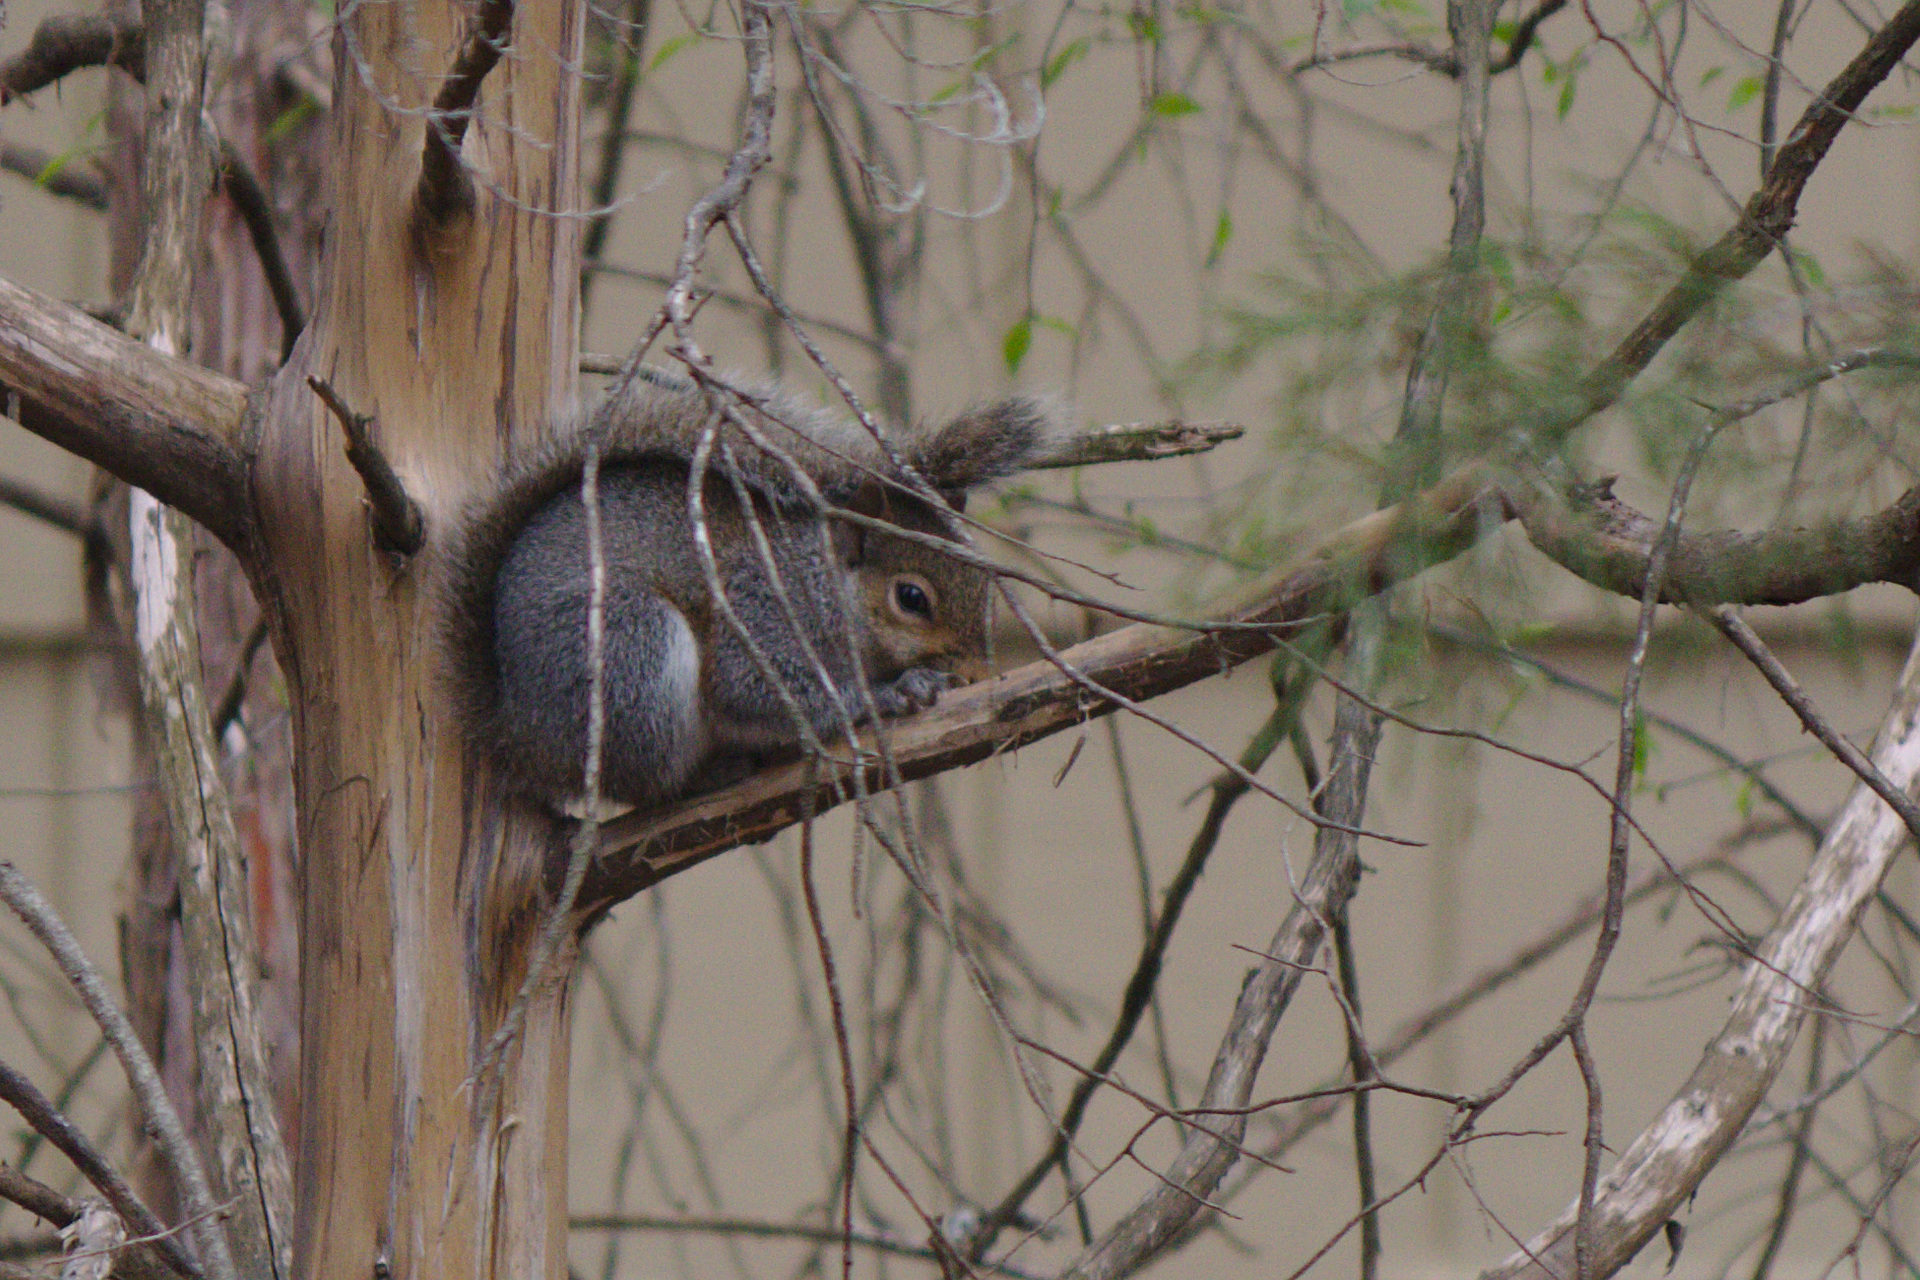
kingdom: Animalia
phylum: Chordata
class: Mammalia
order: Rodentia
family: Sciuridae
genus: Sciurus
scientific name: Sciurus carolinensis
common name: Eastern gray squirrel
